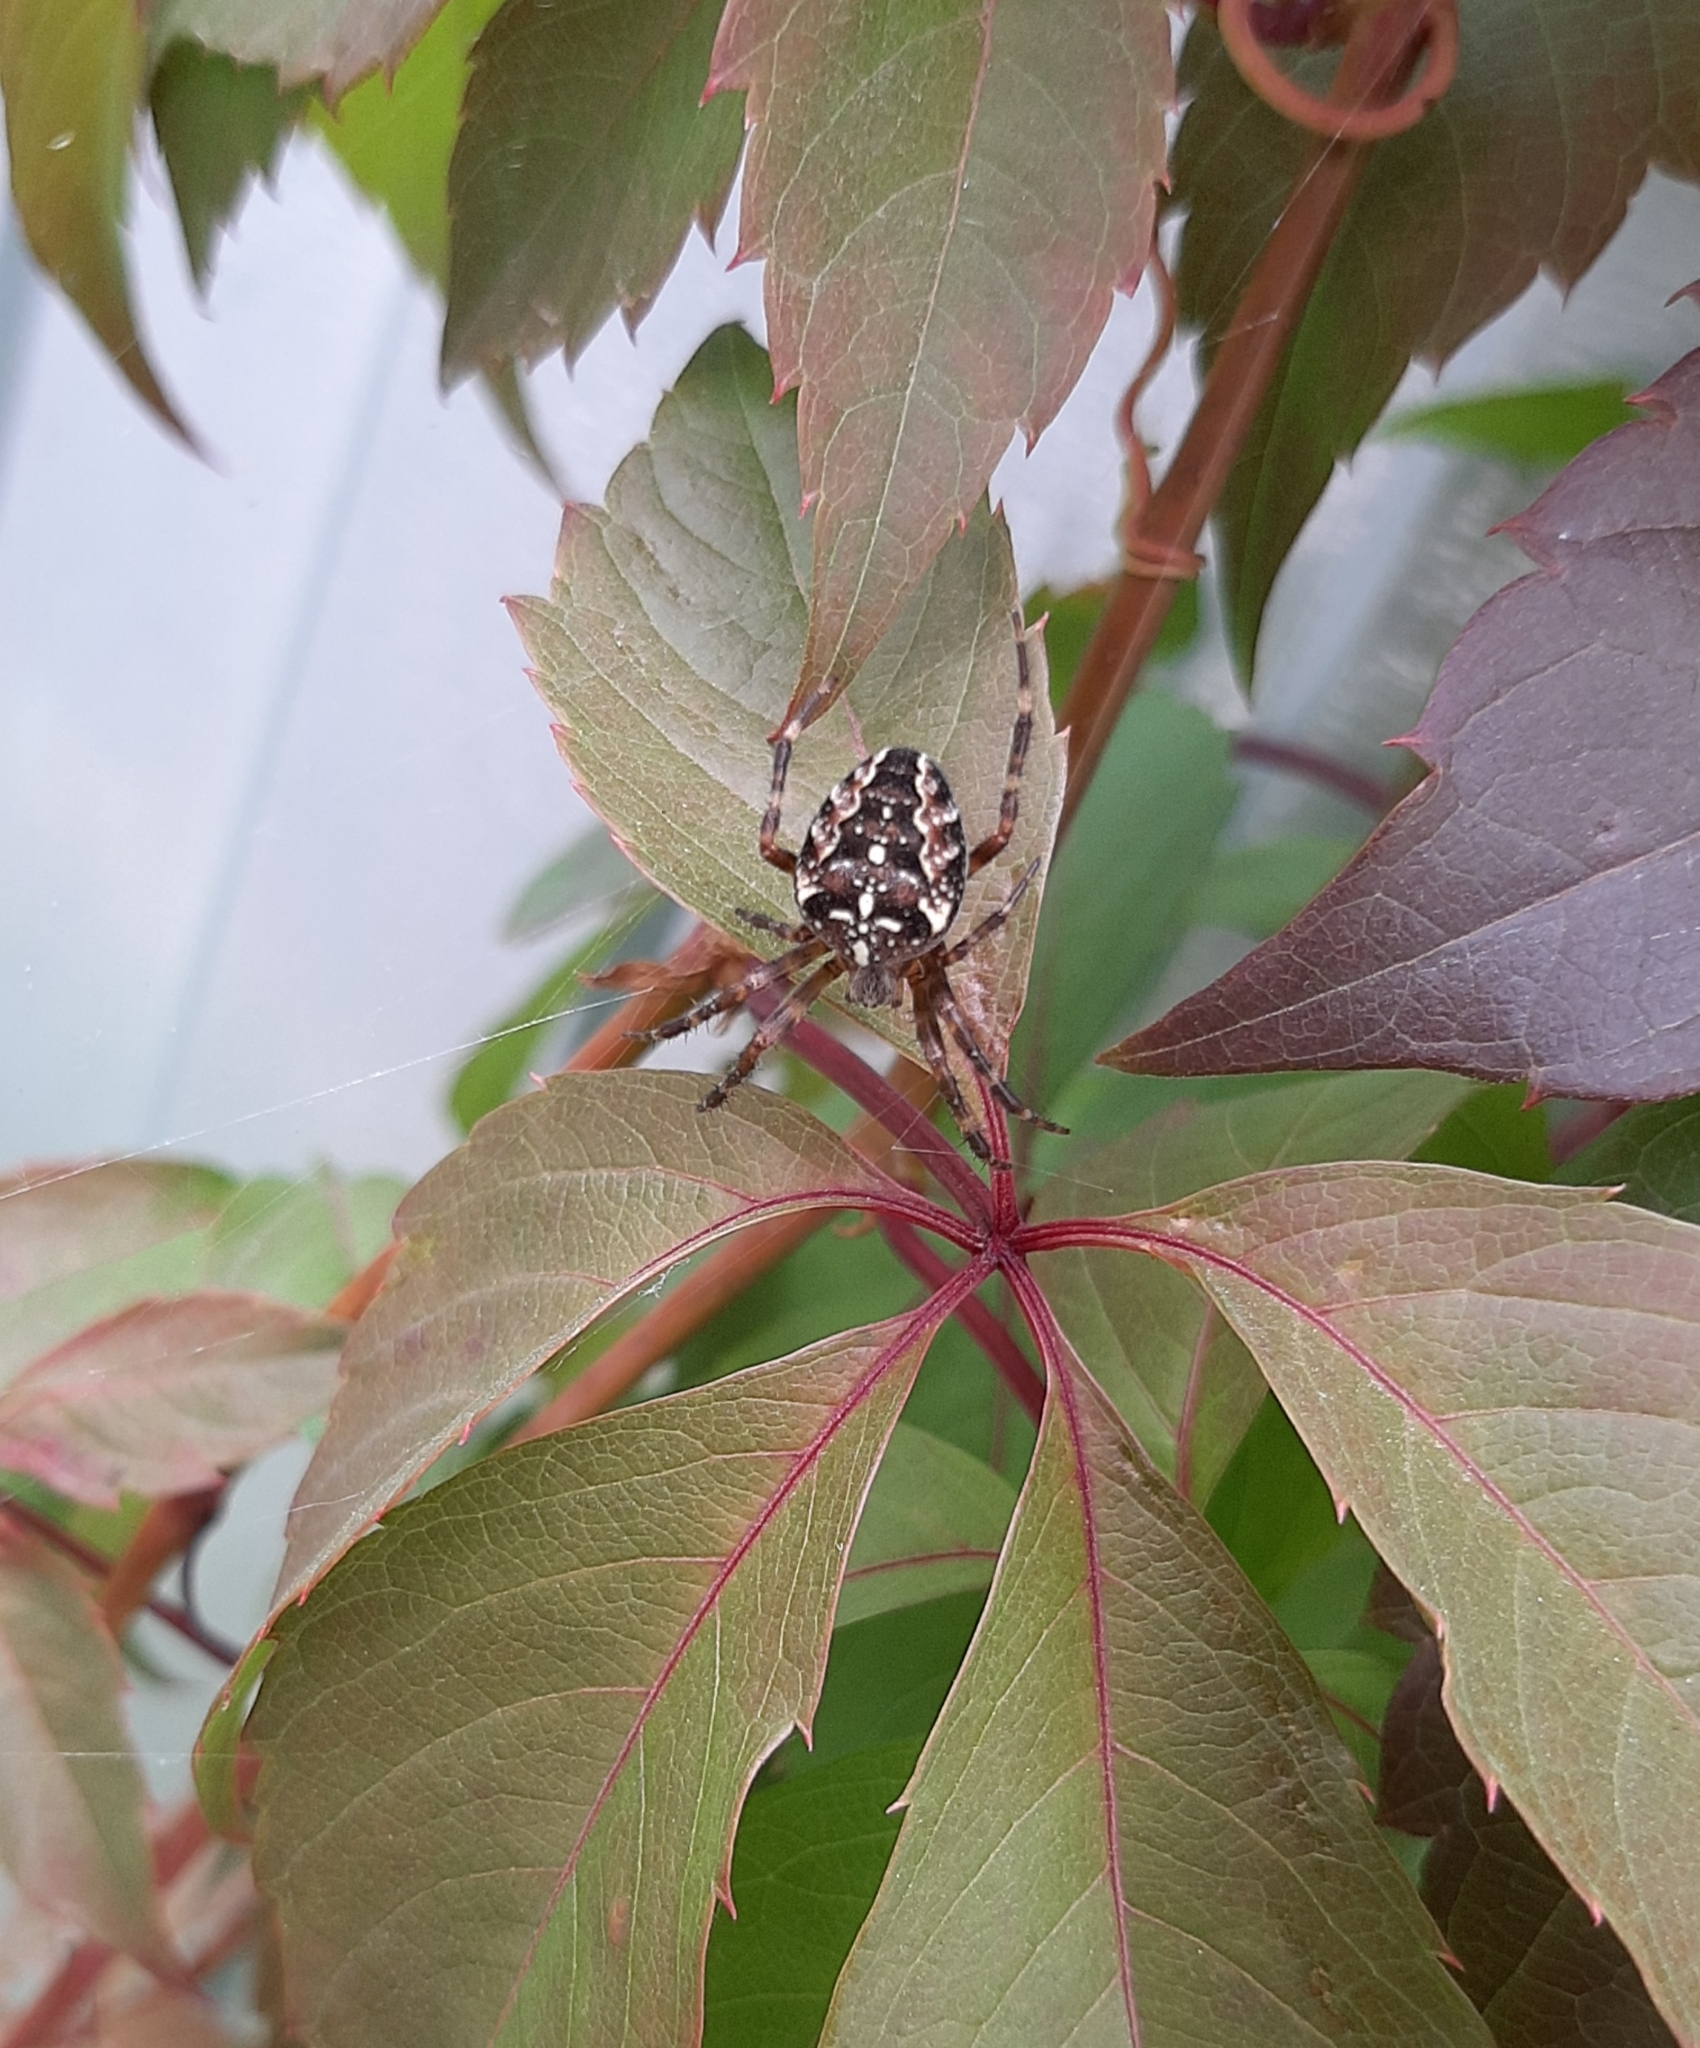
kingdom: Animalia
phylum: Arthropoda
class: Arachnida
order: Araneae
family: Araneidae
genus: Araneus
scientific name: Araneus diadematus
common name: Cross orbweaver
